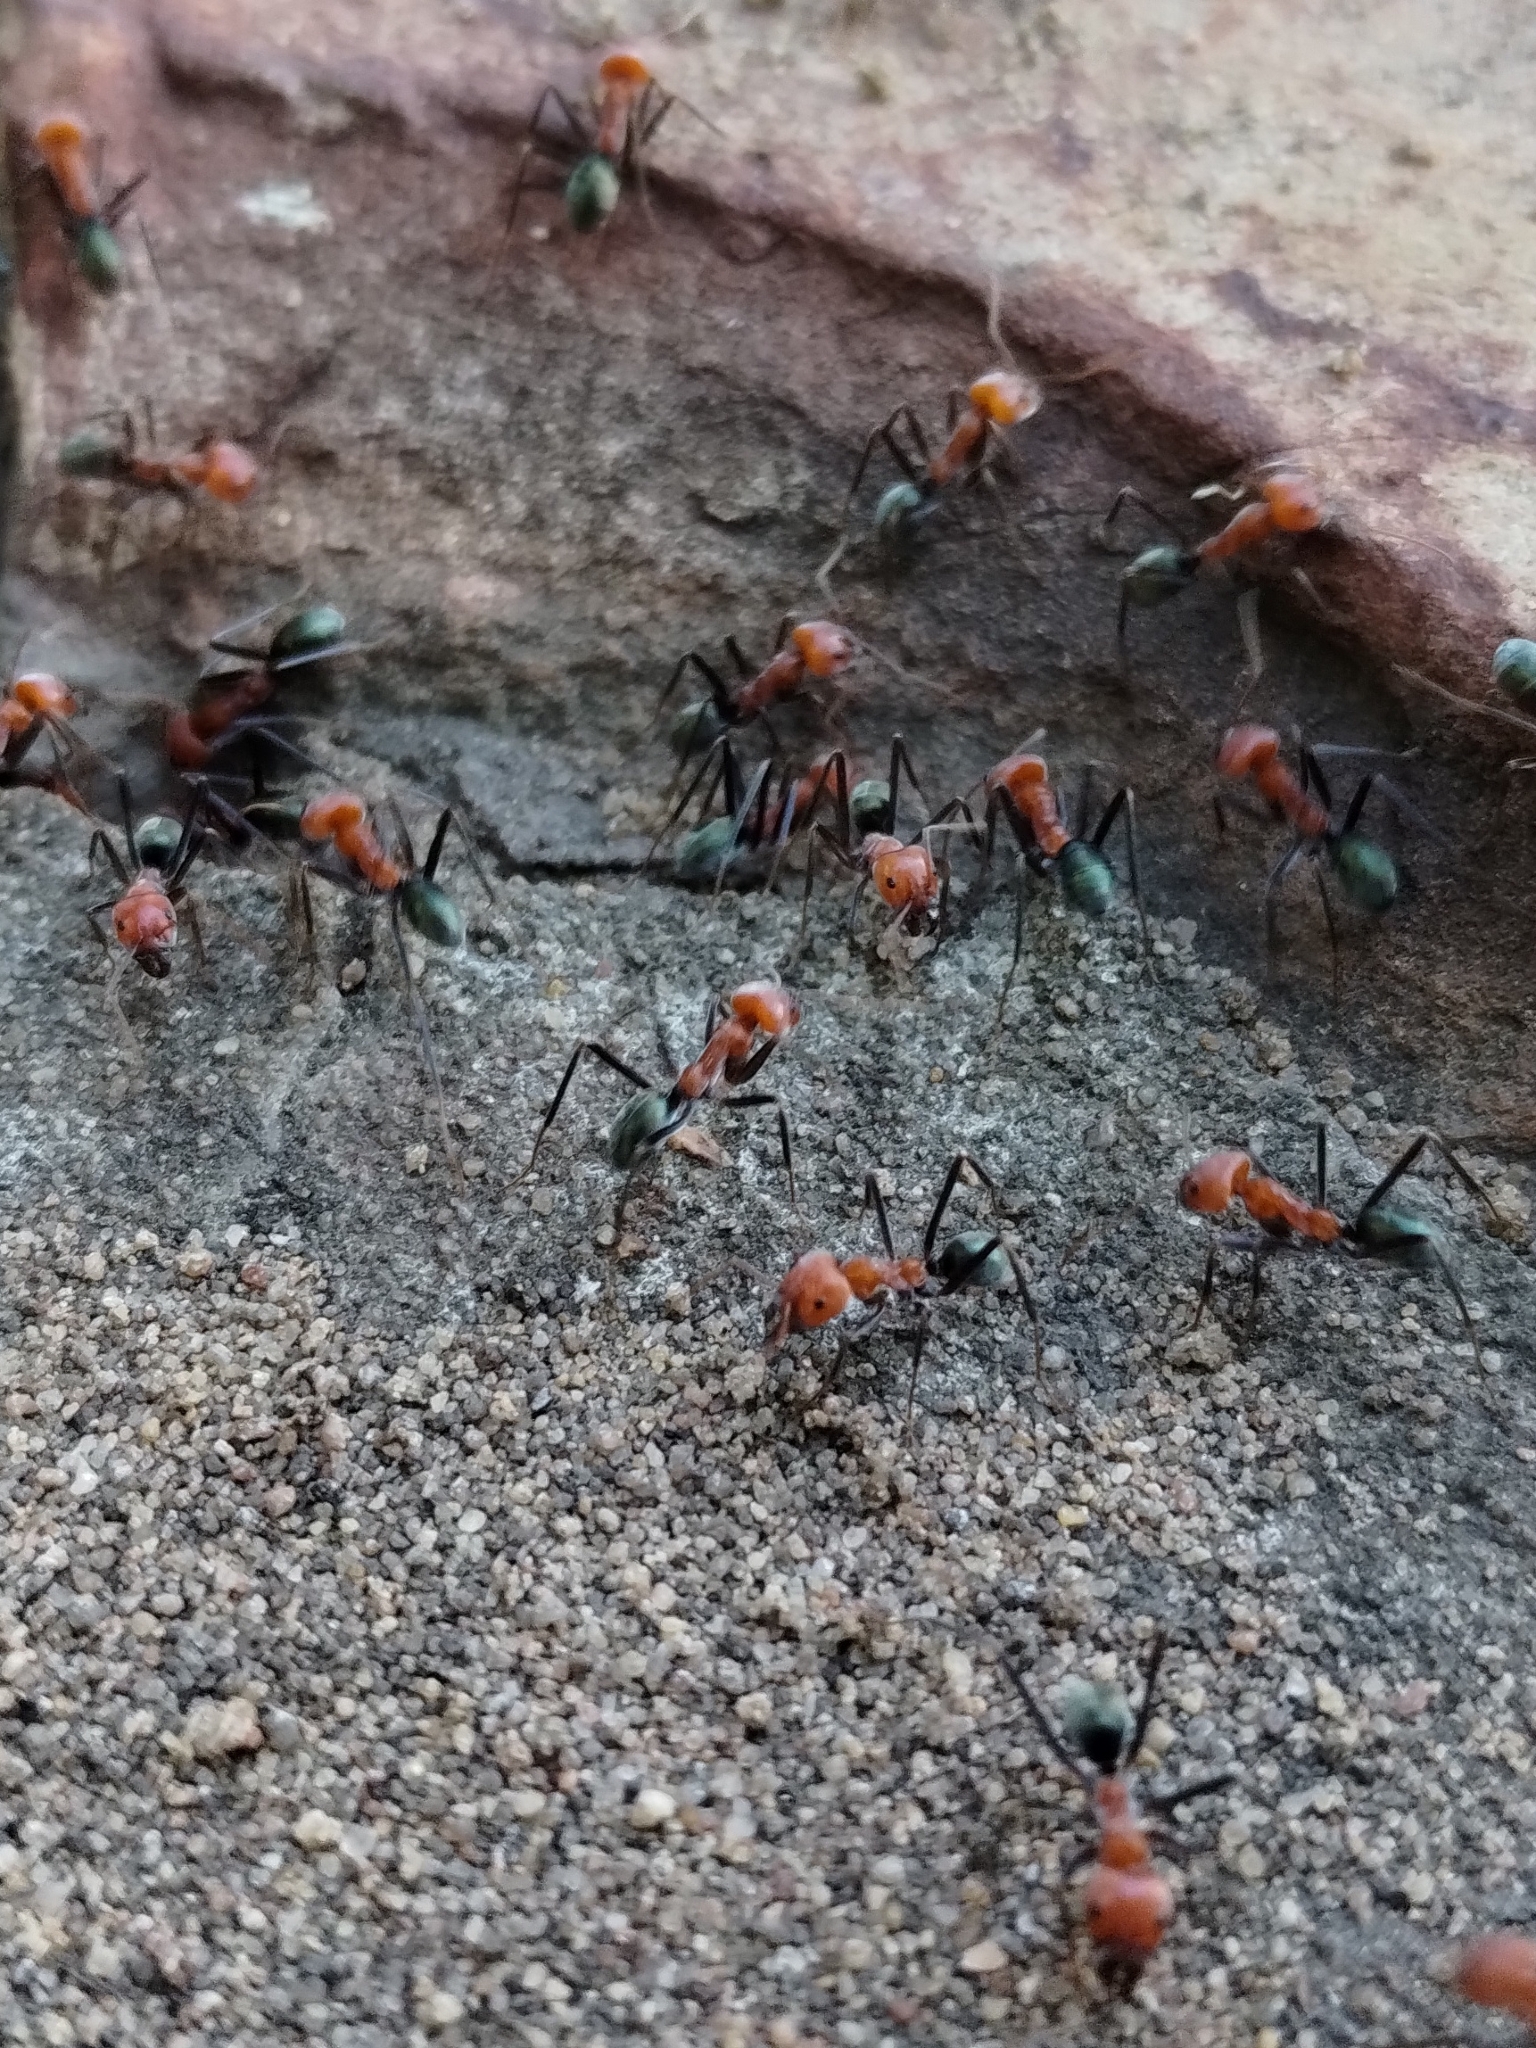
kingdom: Animalia
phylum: Arthropoda
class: Insecta
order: Hymenoptera
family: Formicidae
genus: Iridomyrmex
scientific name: Iridomyrmex sanguineus
